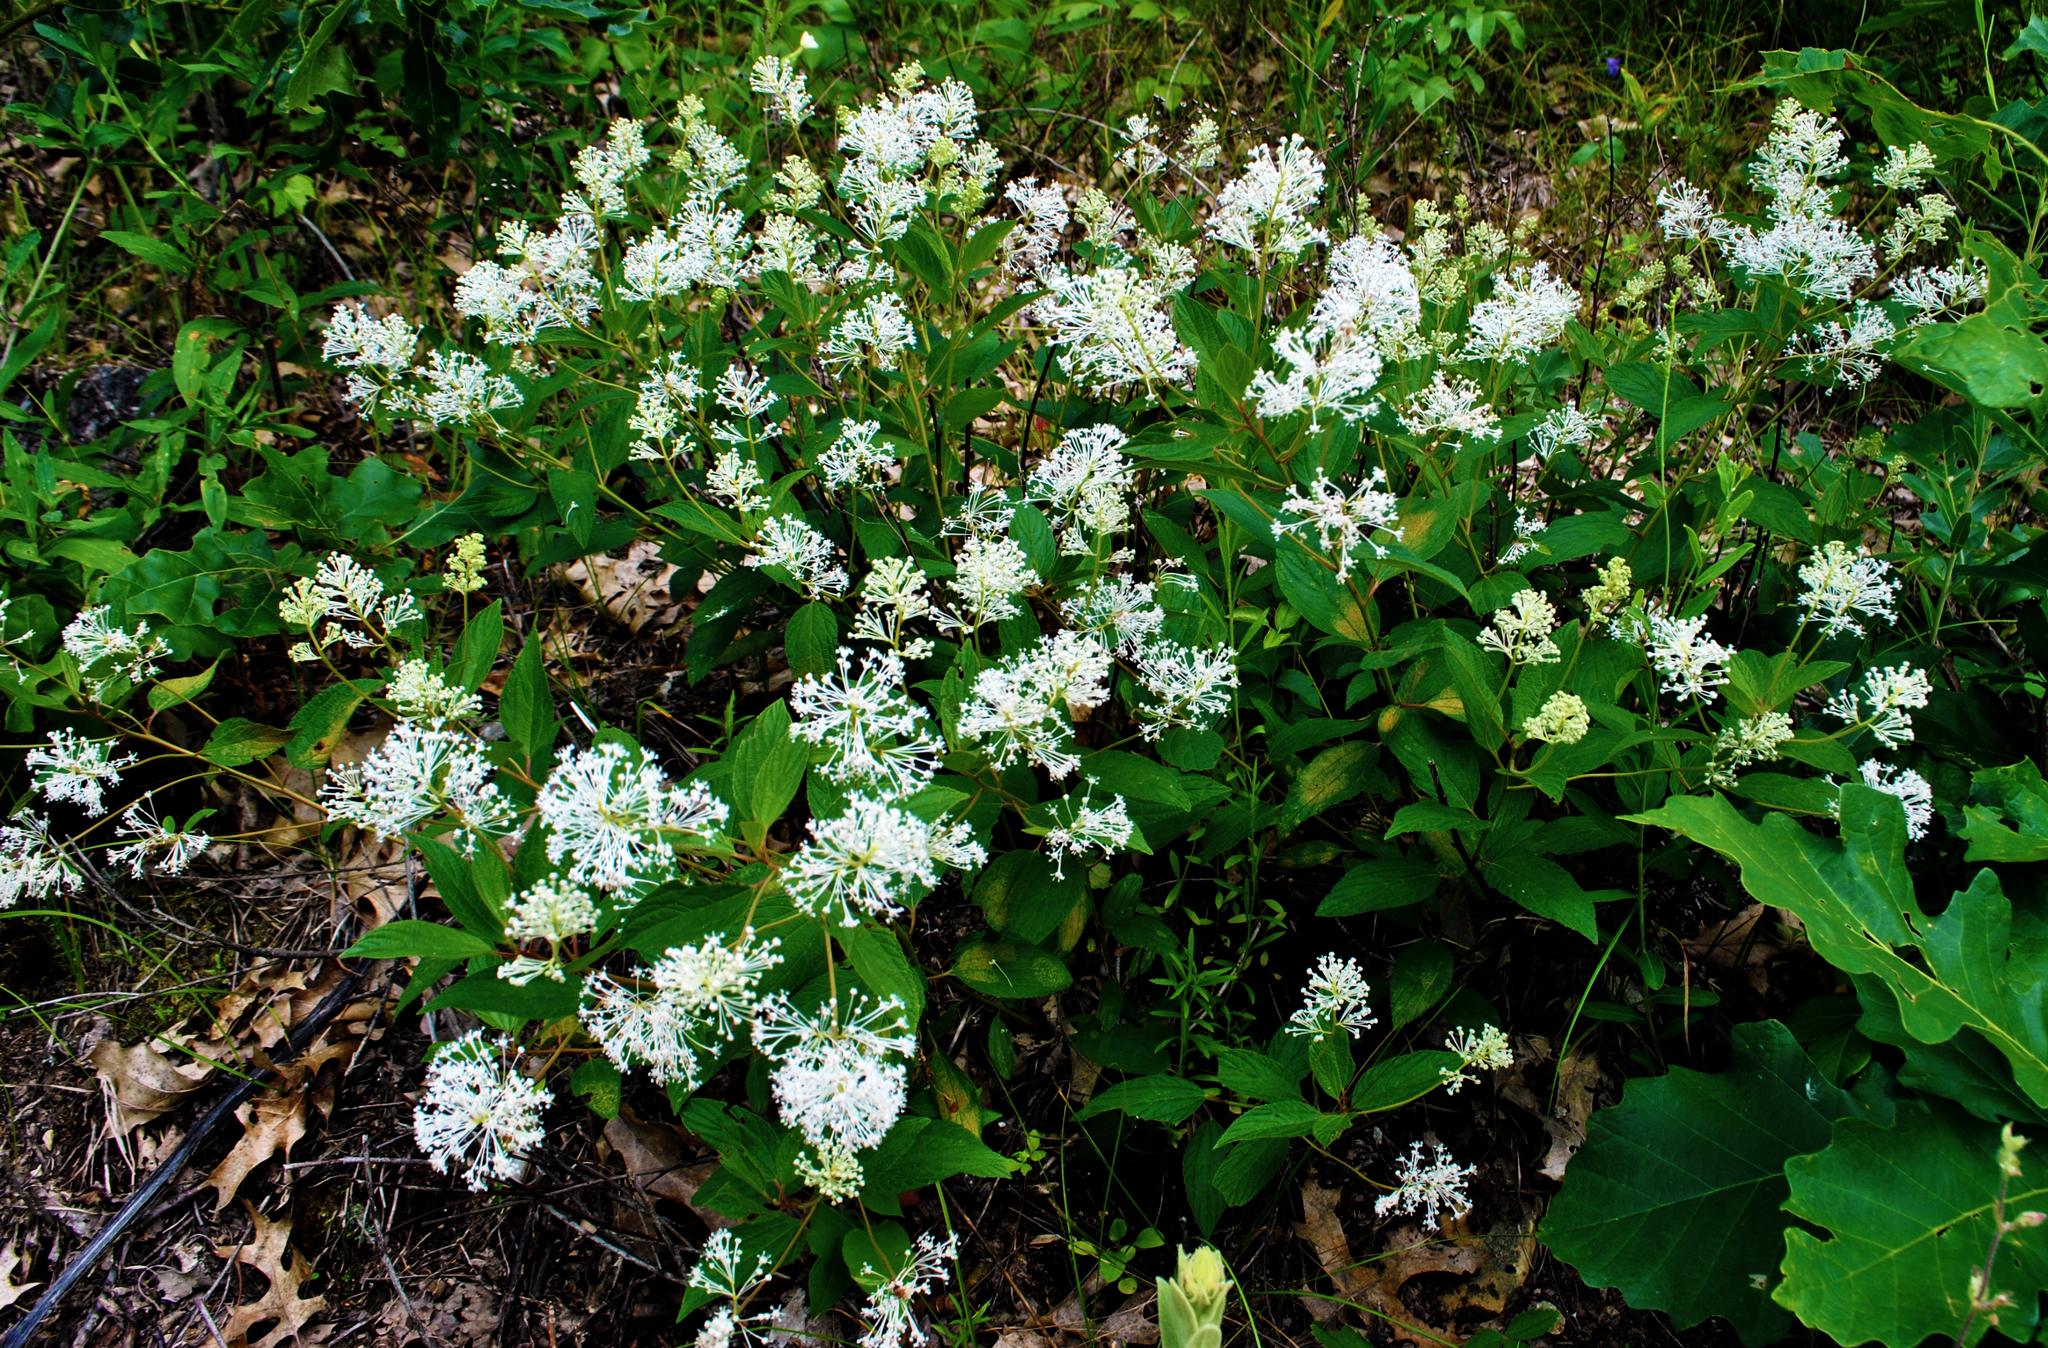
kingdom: Plantae
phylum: Tracheophyta
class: Magnoliopsida
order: Rosales
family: Rhamnaceae
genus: Ceanothus
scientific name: Ceanothus americanus
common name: Redroot
